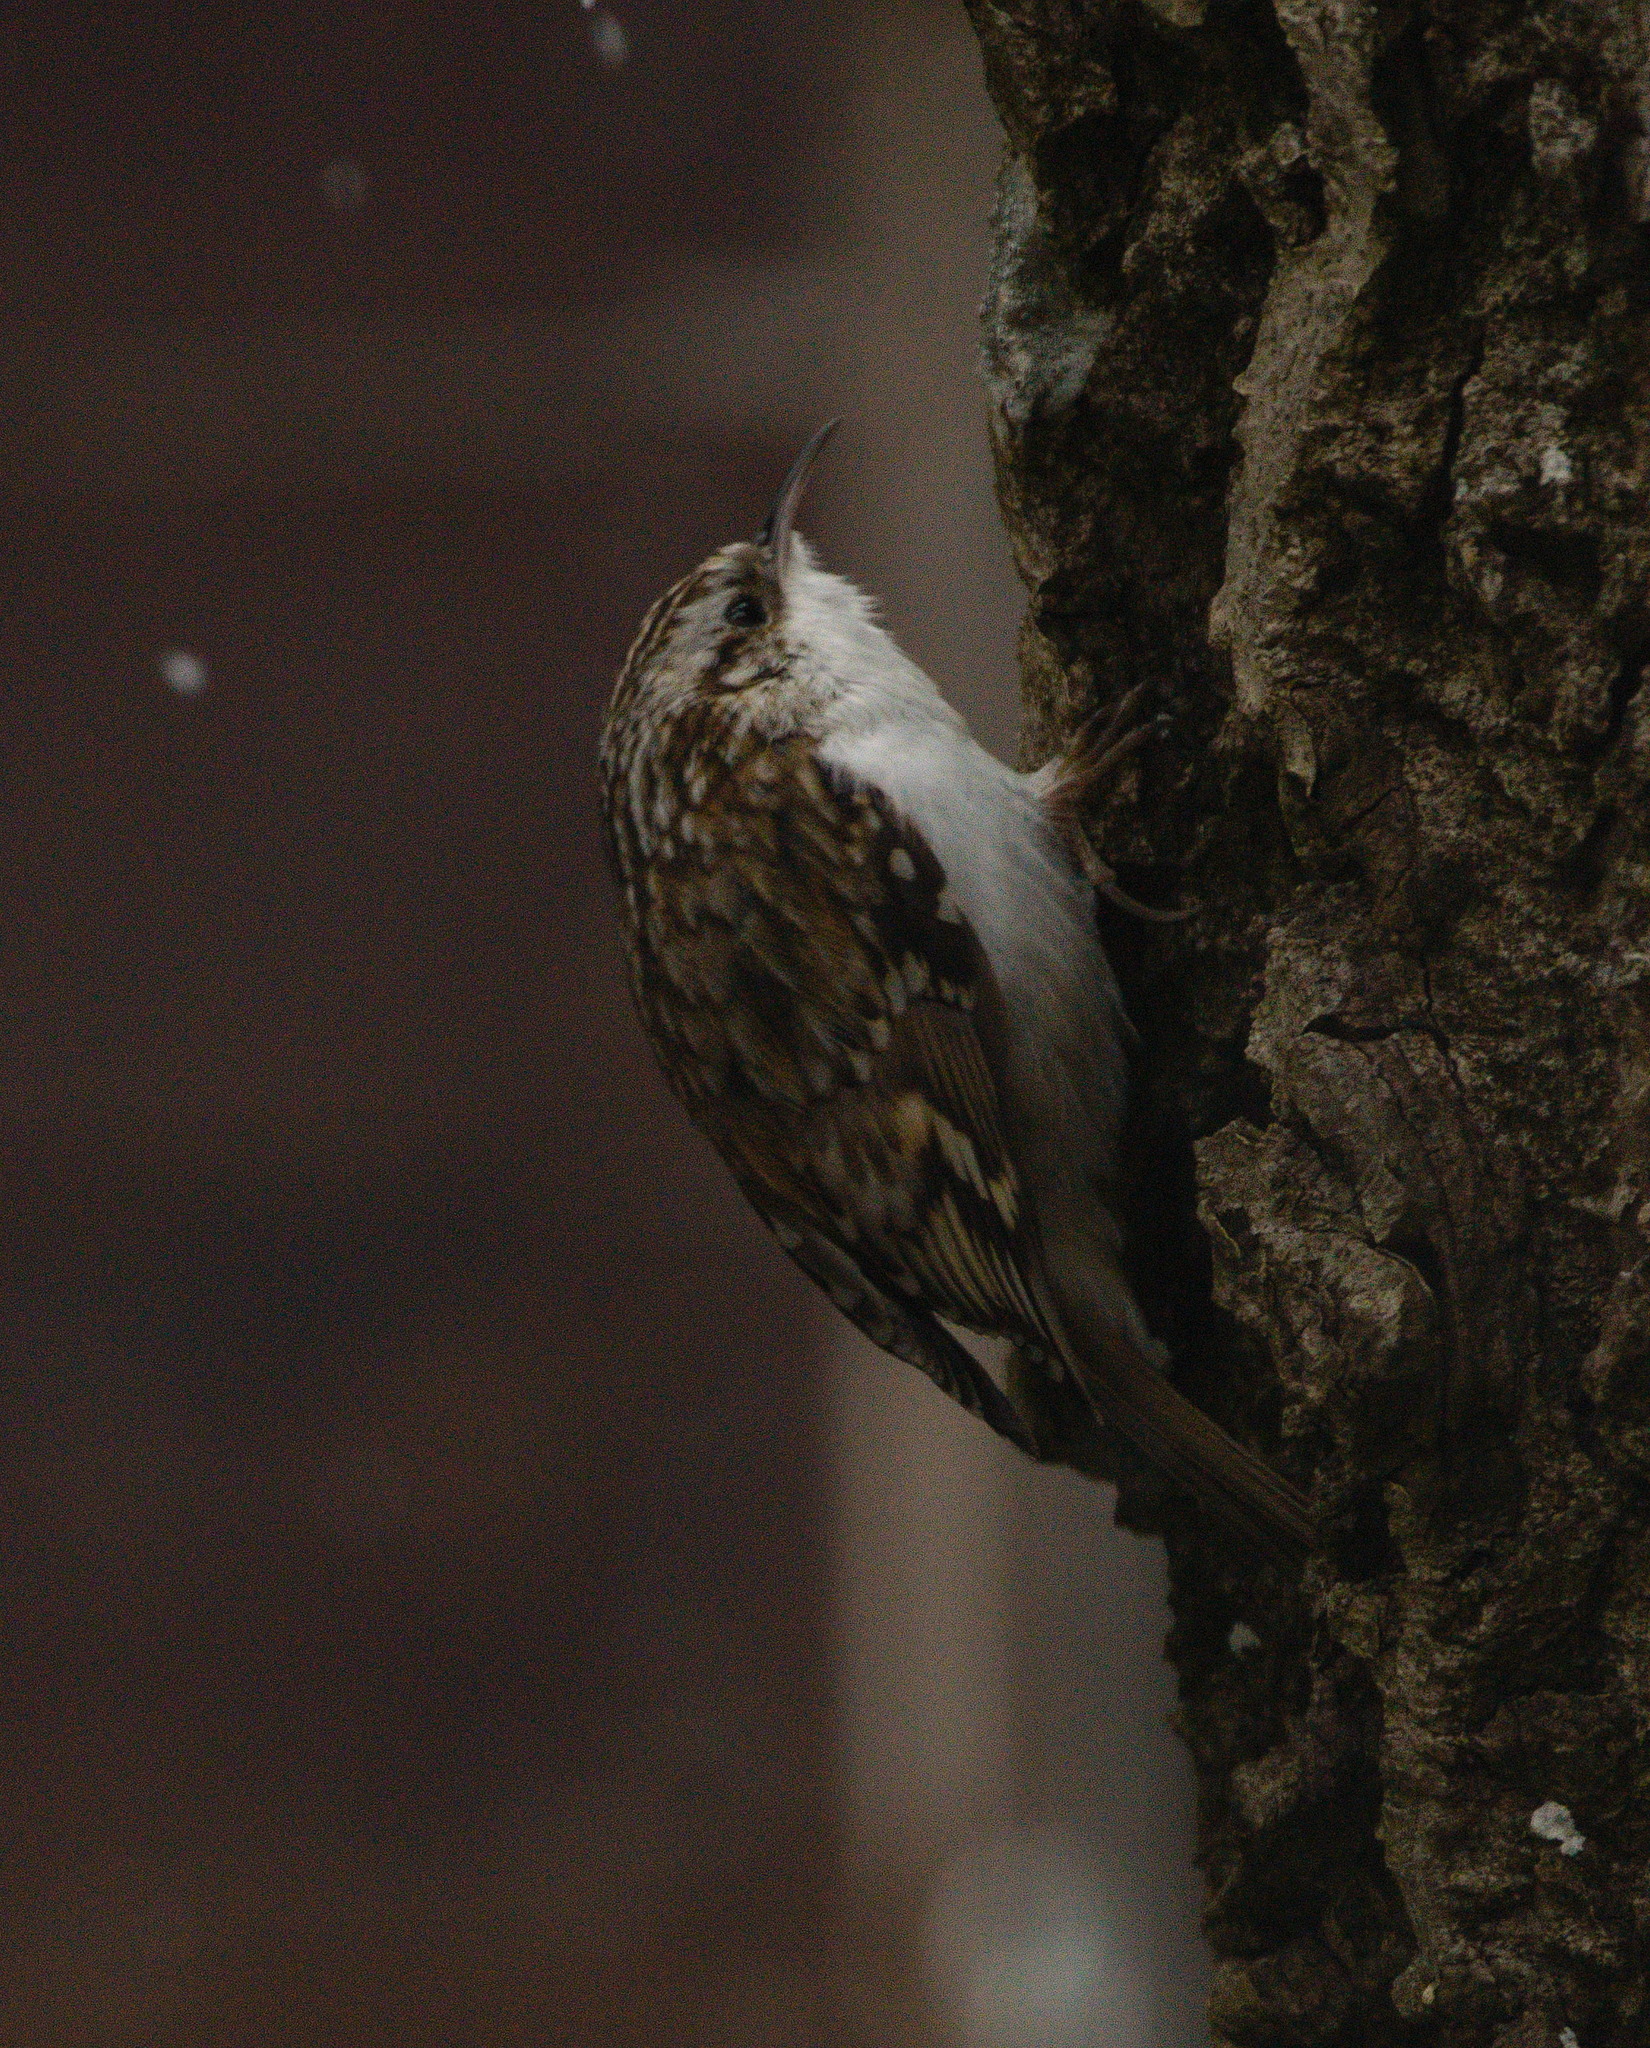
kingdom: Animalia
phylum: Chordata
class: Aves
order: Passeriformes
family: Certhiidae
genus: Certhia
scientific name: Certhia familiaris
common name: Eurasian treecreeper
